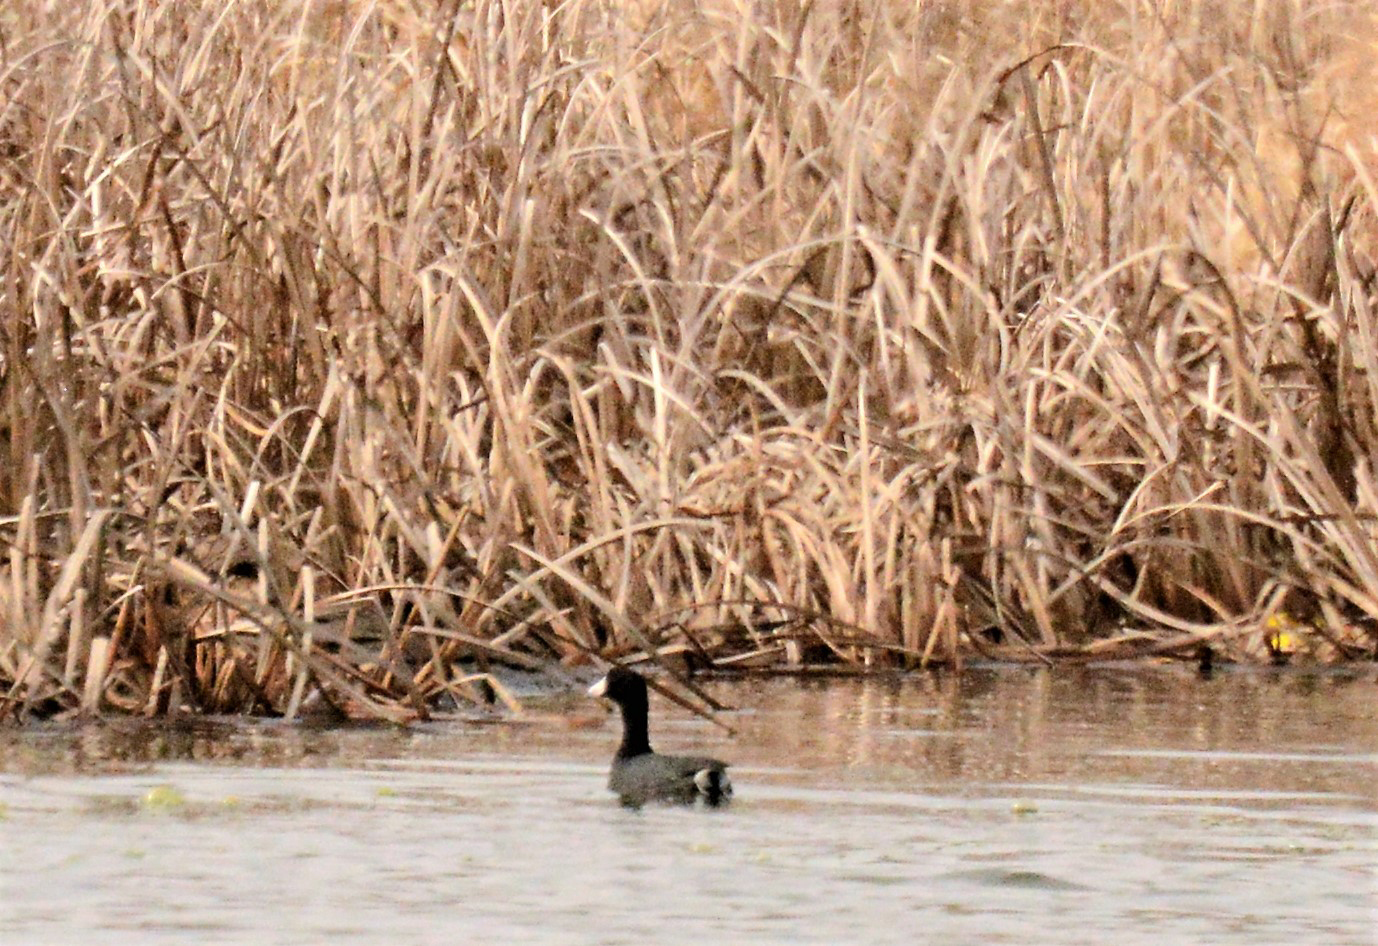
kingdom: Animalia
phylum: Chordata
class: Aves
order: Gruiformes
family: Rallidae
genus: Fulica
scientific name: Fulica americana
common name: American coot
